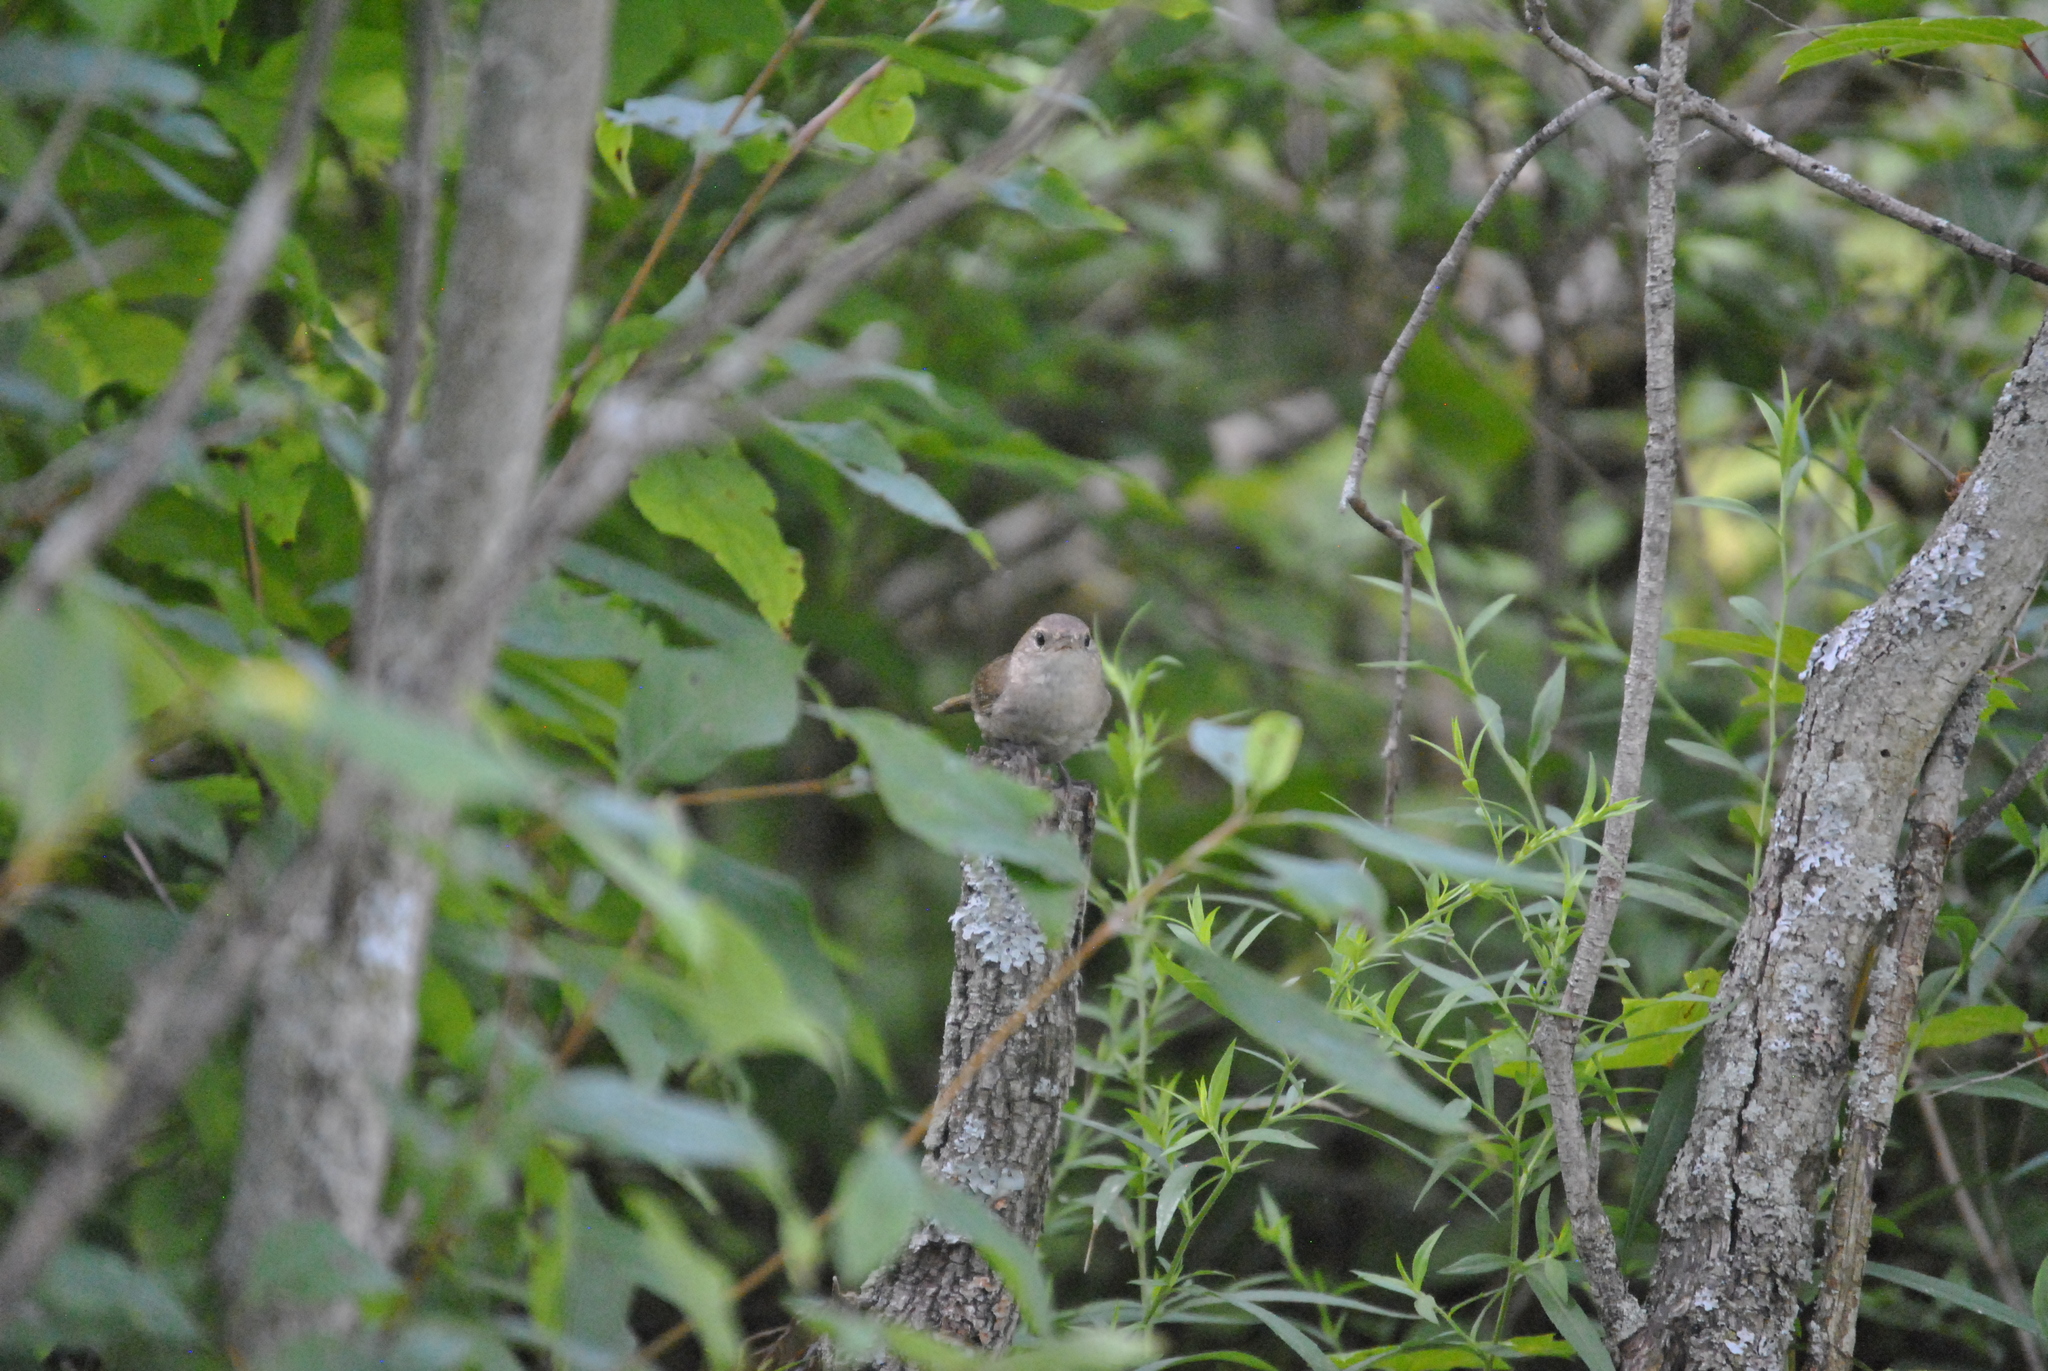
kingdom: Animalia
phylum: Chordata
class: Aves
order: Passeriformes
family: Troglodytidae
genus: Troglodytes
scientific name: Troglodytes aedon
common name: House wren
